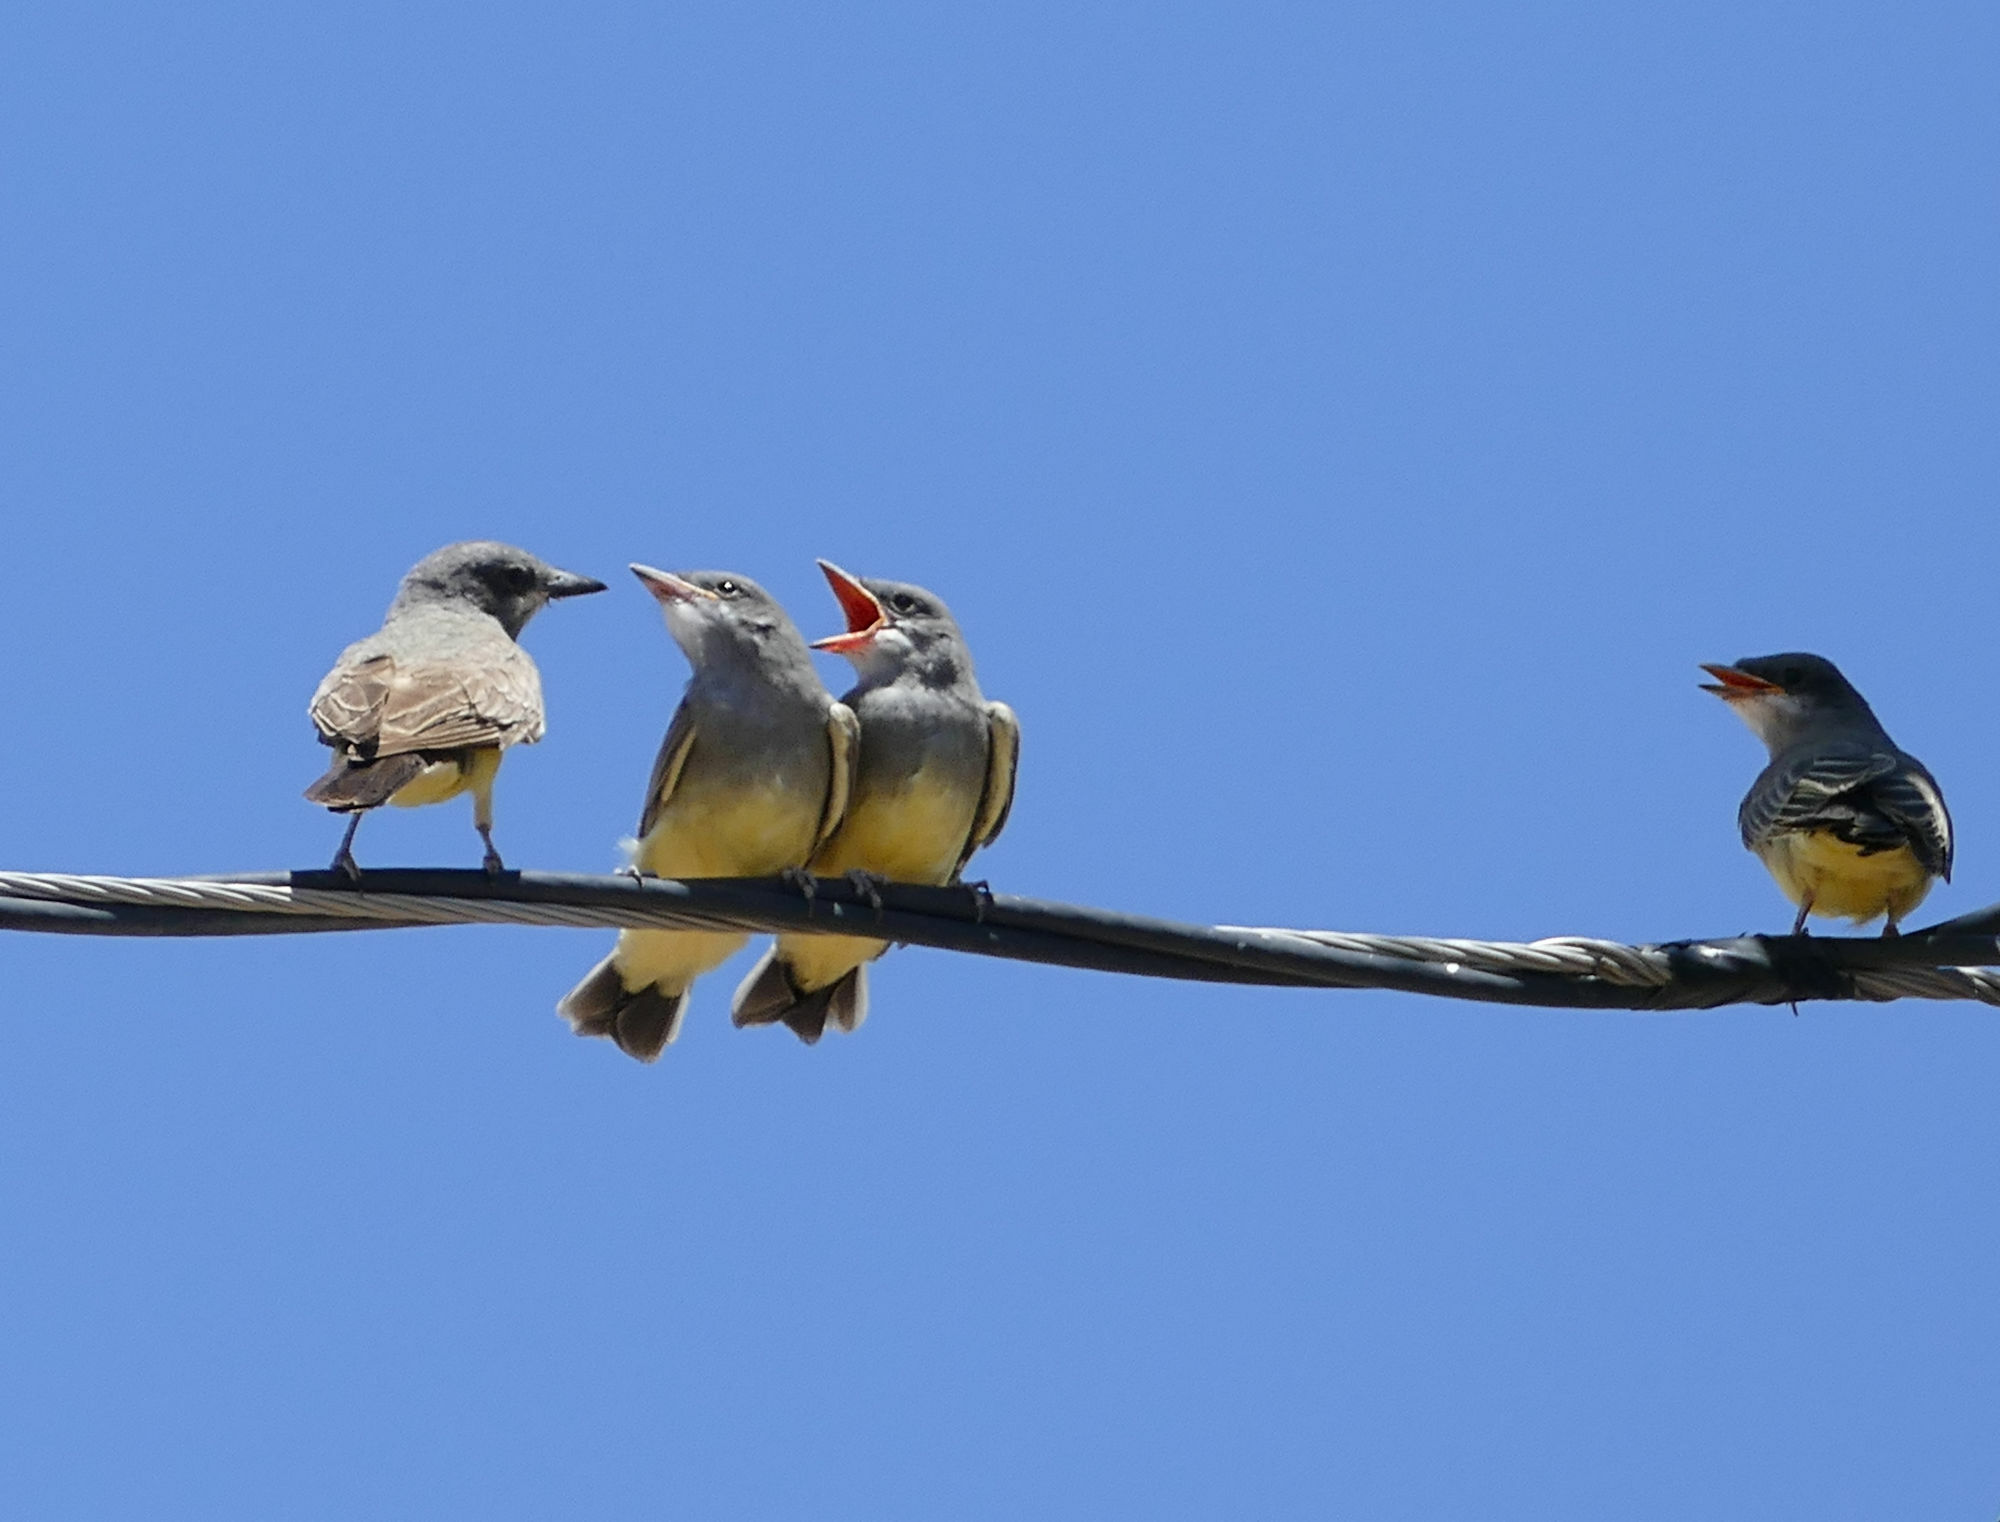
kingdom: Animalia
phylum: Chordata
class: Aves
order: Passeriformes
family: Tyrannidae
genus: Tyrannus
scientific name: Tyrannus vociferans
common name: Cassin's kingbird
